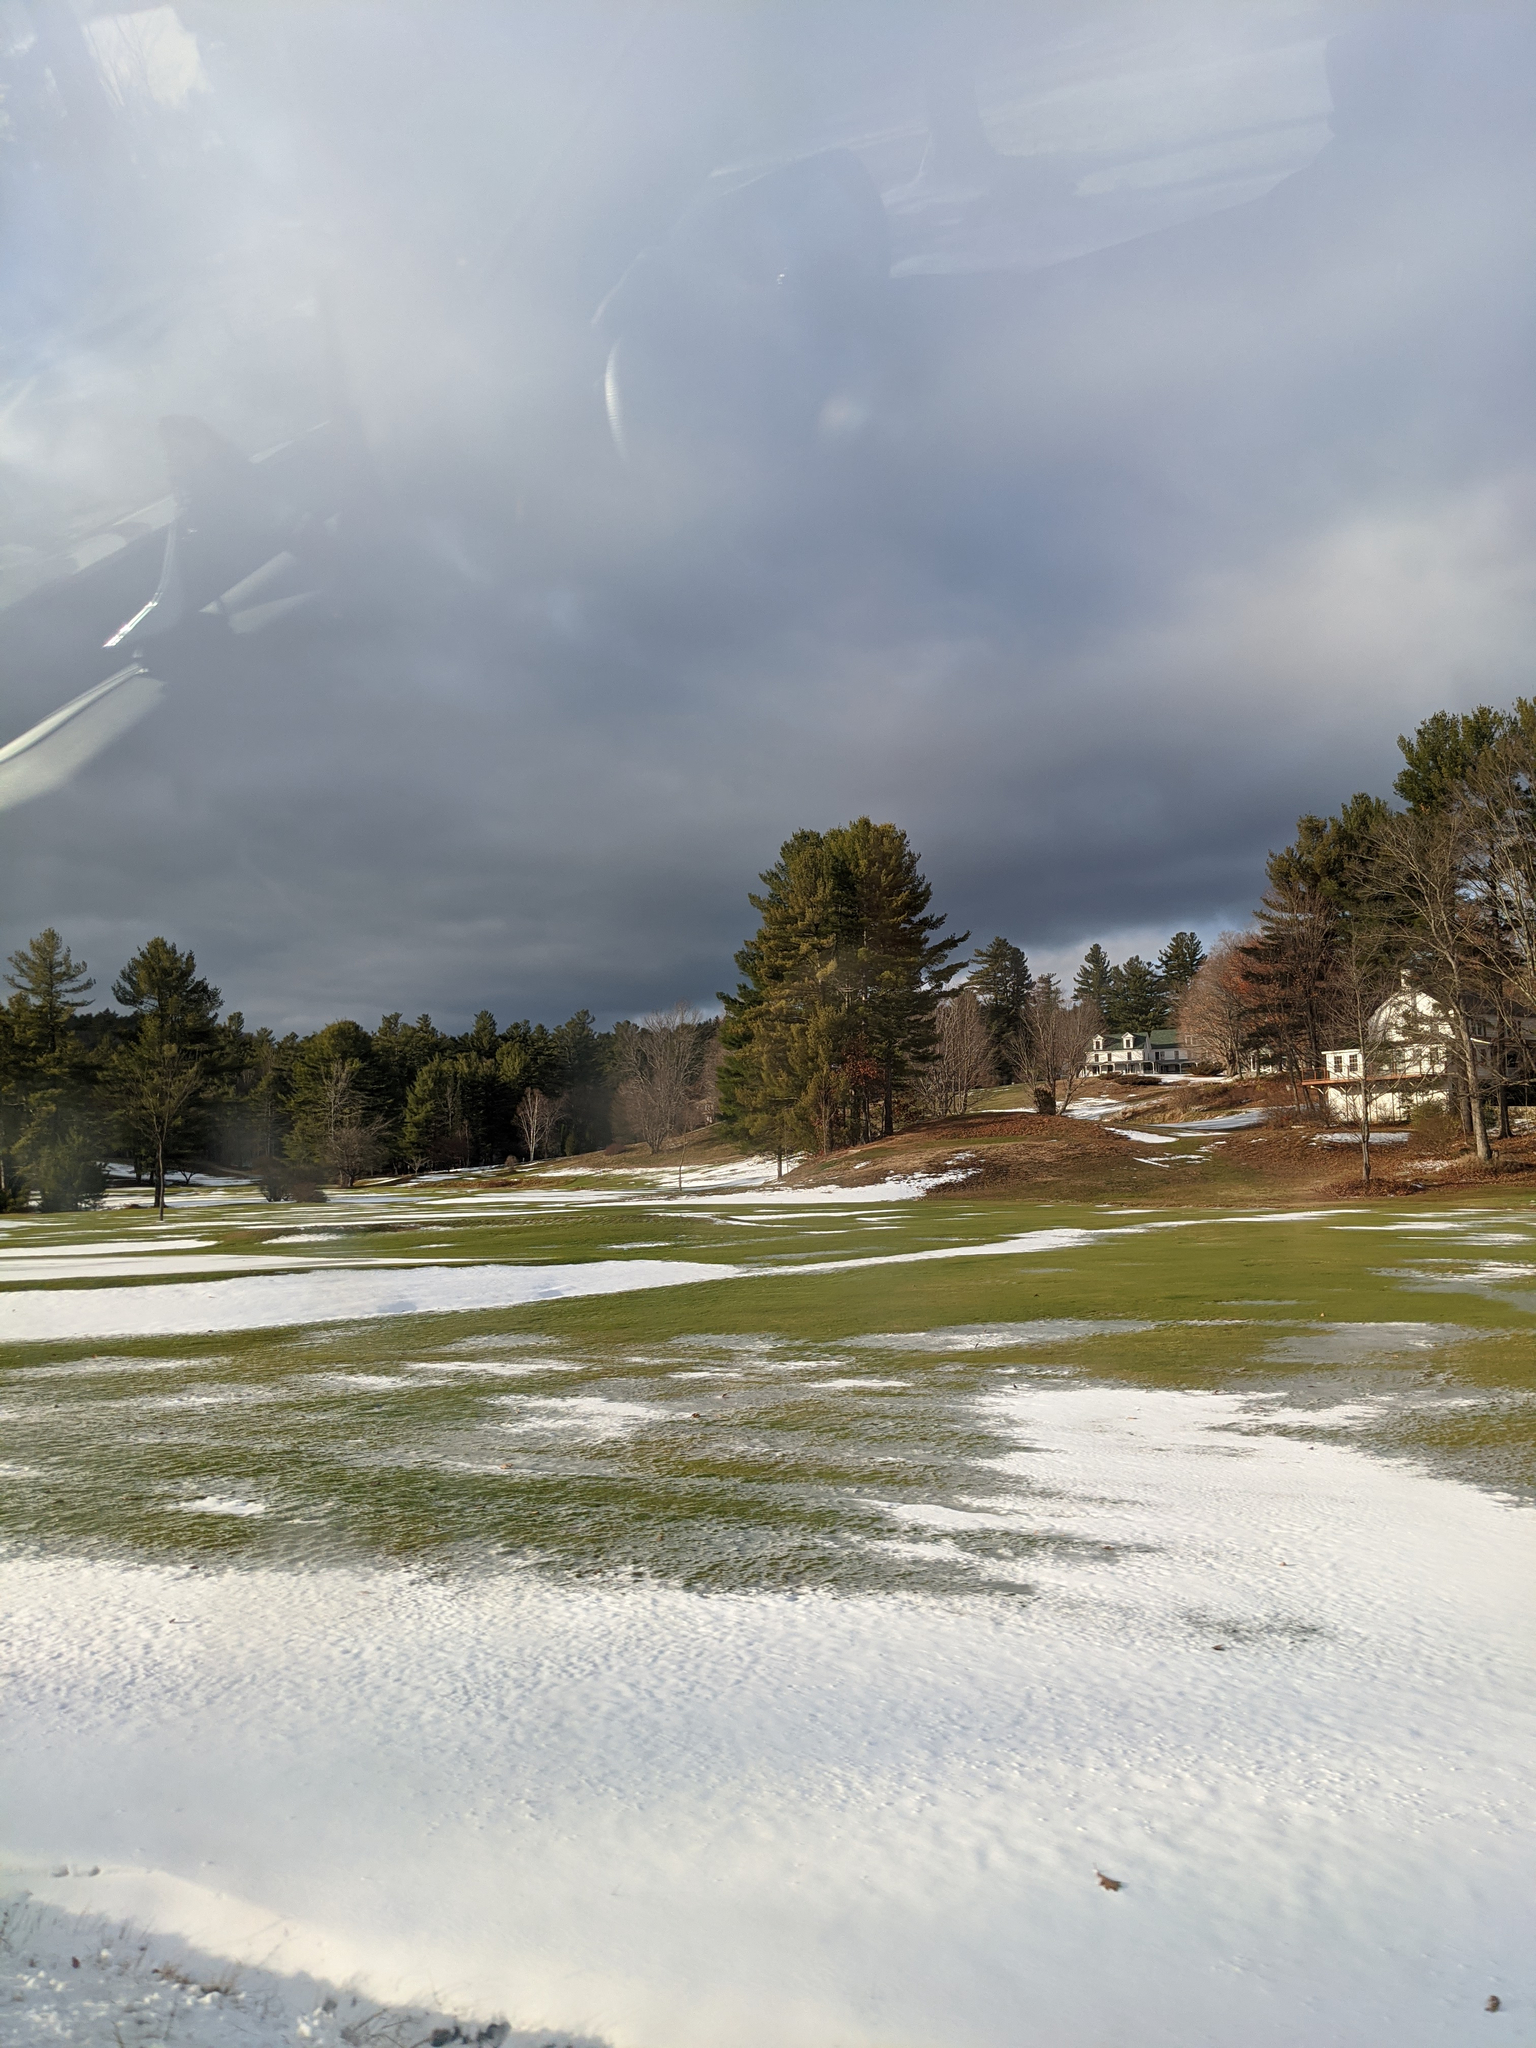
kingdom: Plantae
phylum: Tracheophyta
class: Pinopsida
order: Pinales
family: Pinaceae
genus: Pinus
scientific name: Pinus strobus
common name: Weymouth pine
